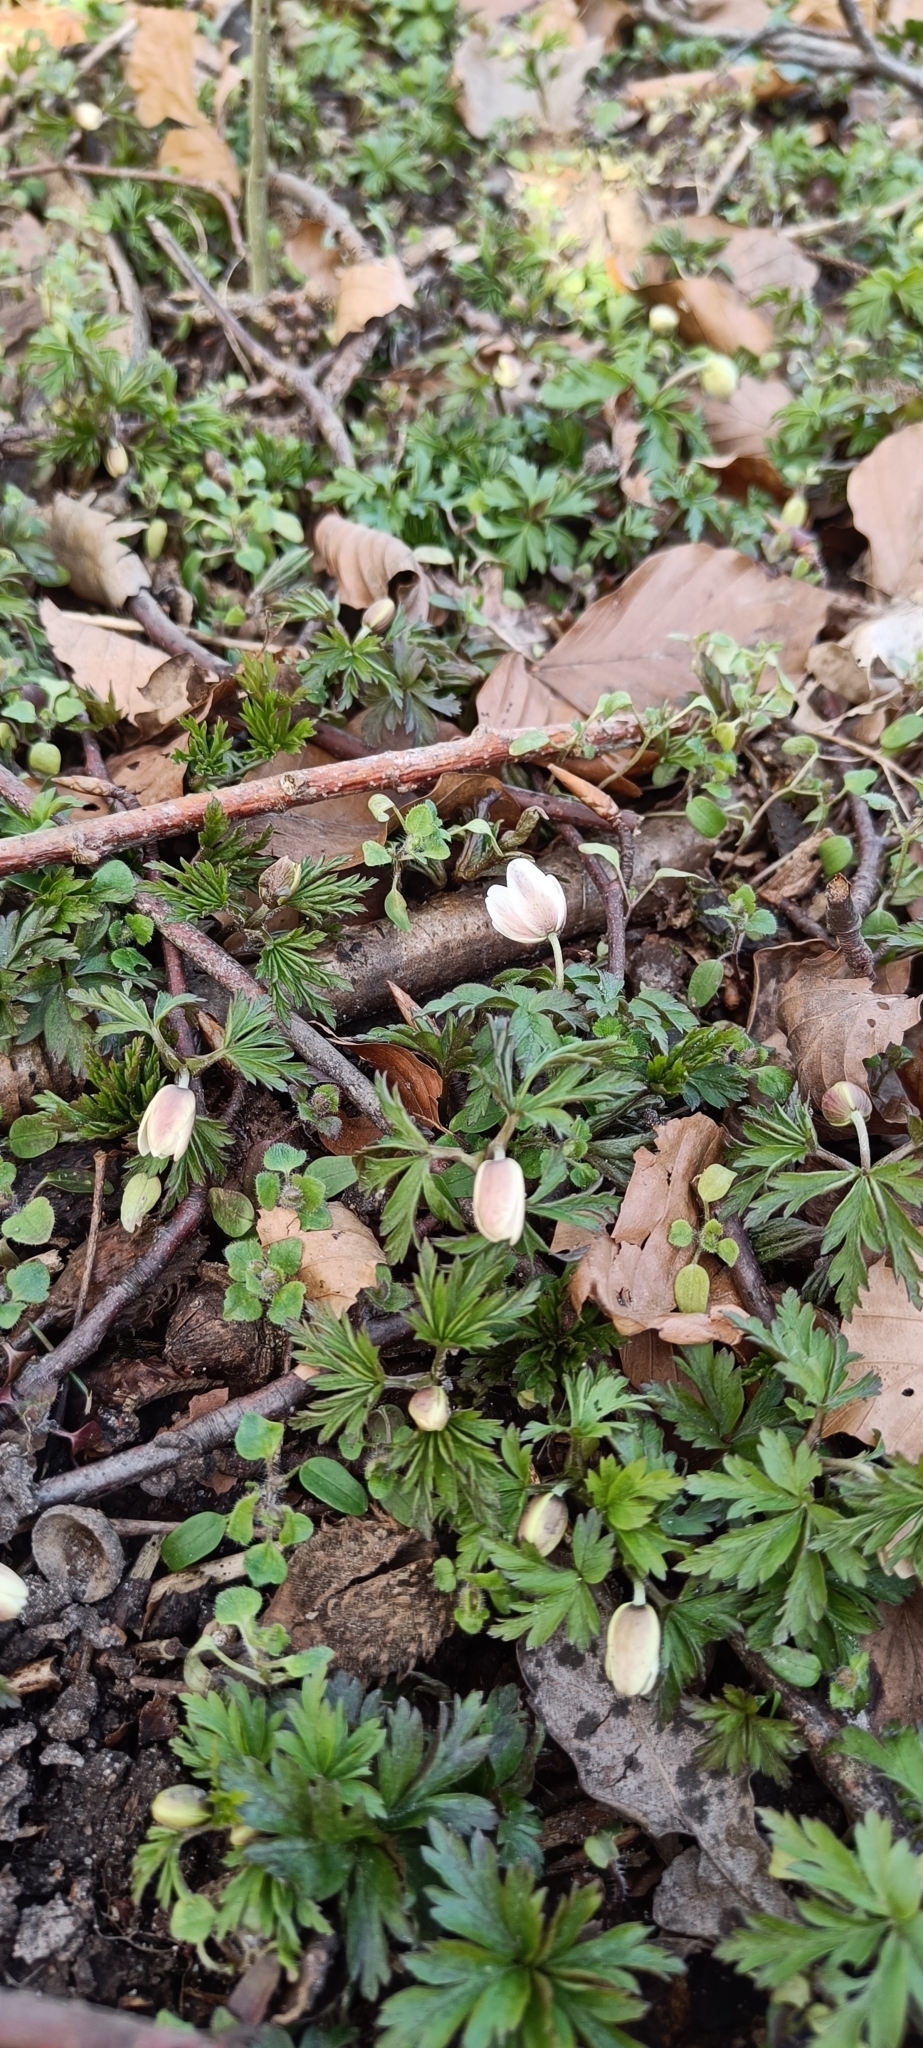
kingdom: Plantae
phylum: Tracheophyta
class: Magnoliopsida
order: Ranunculales
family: Ranunculaceae
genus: Anemone
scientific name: Anemone nemorosa
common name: Wood anemone
